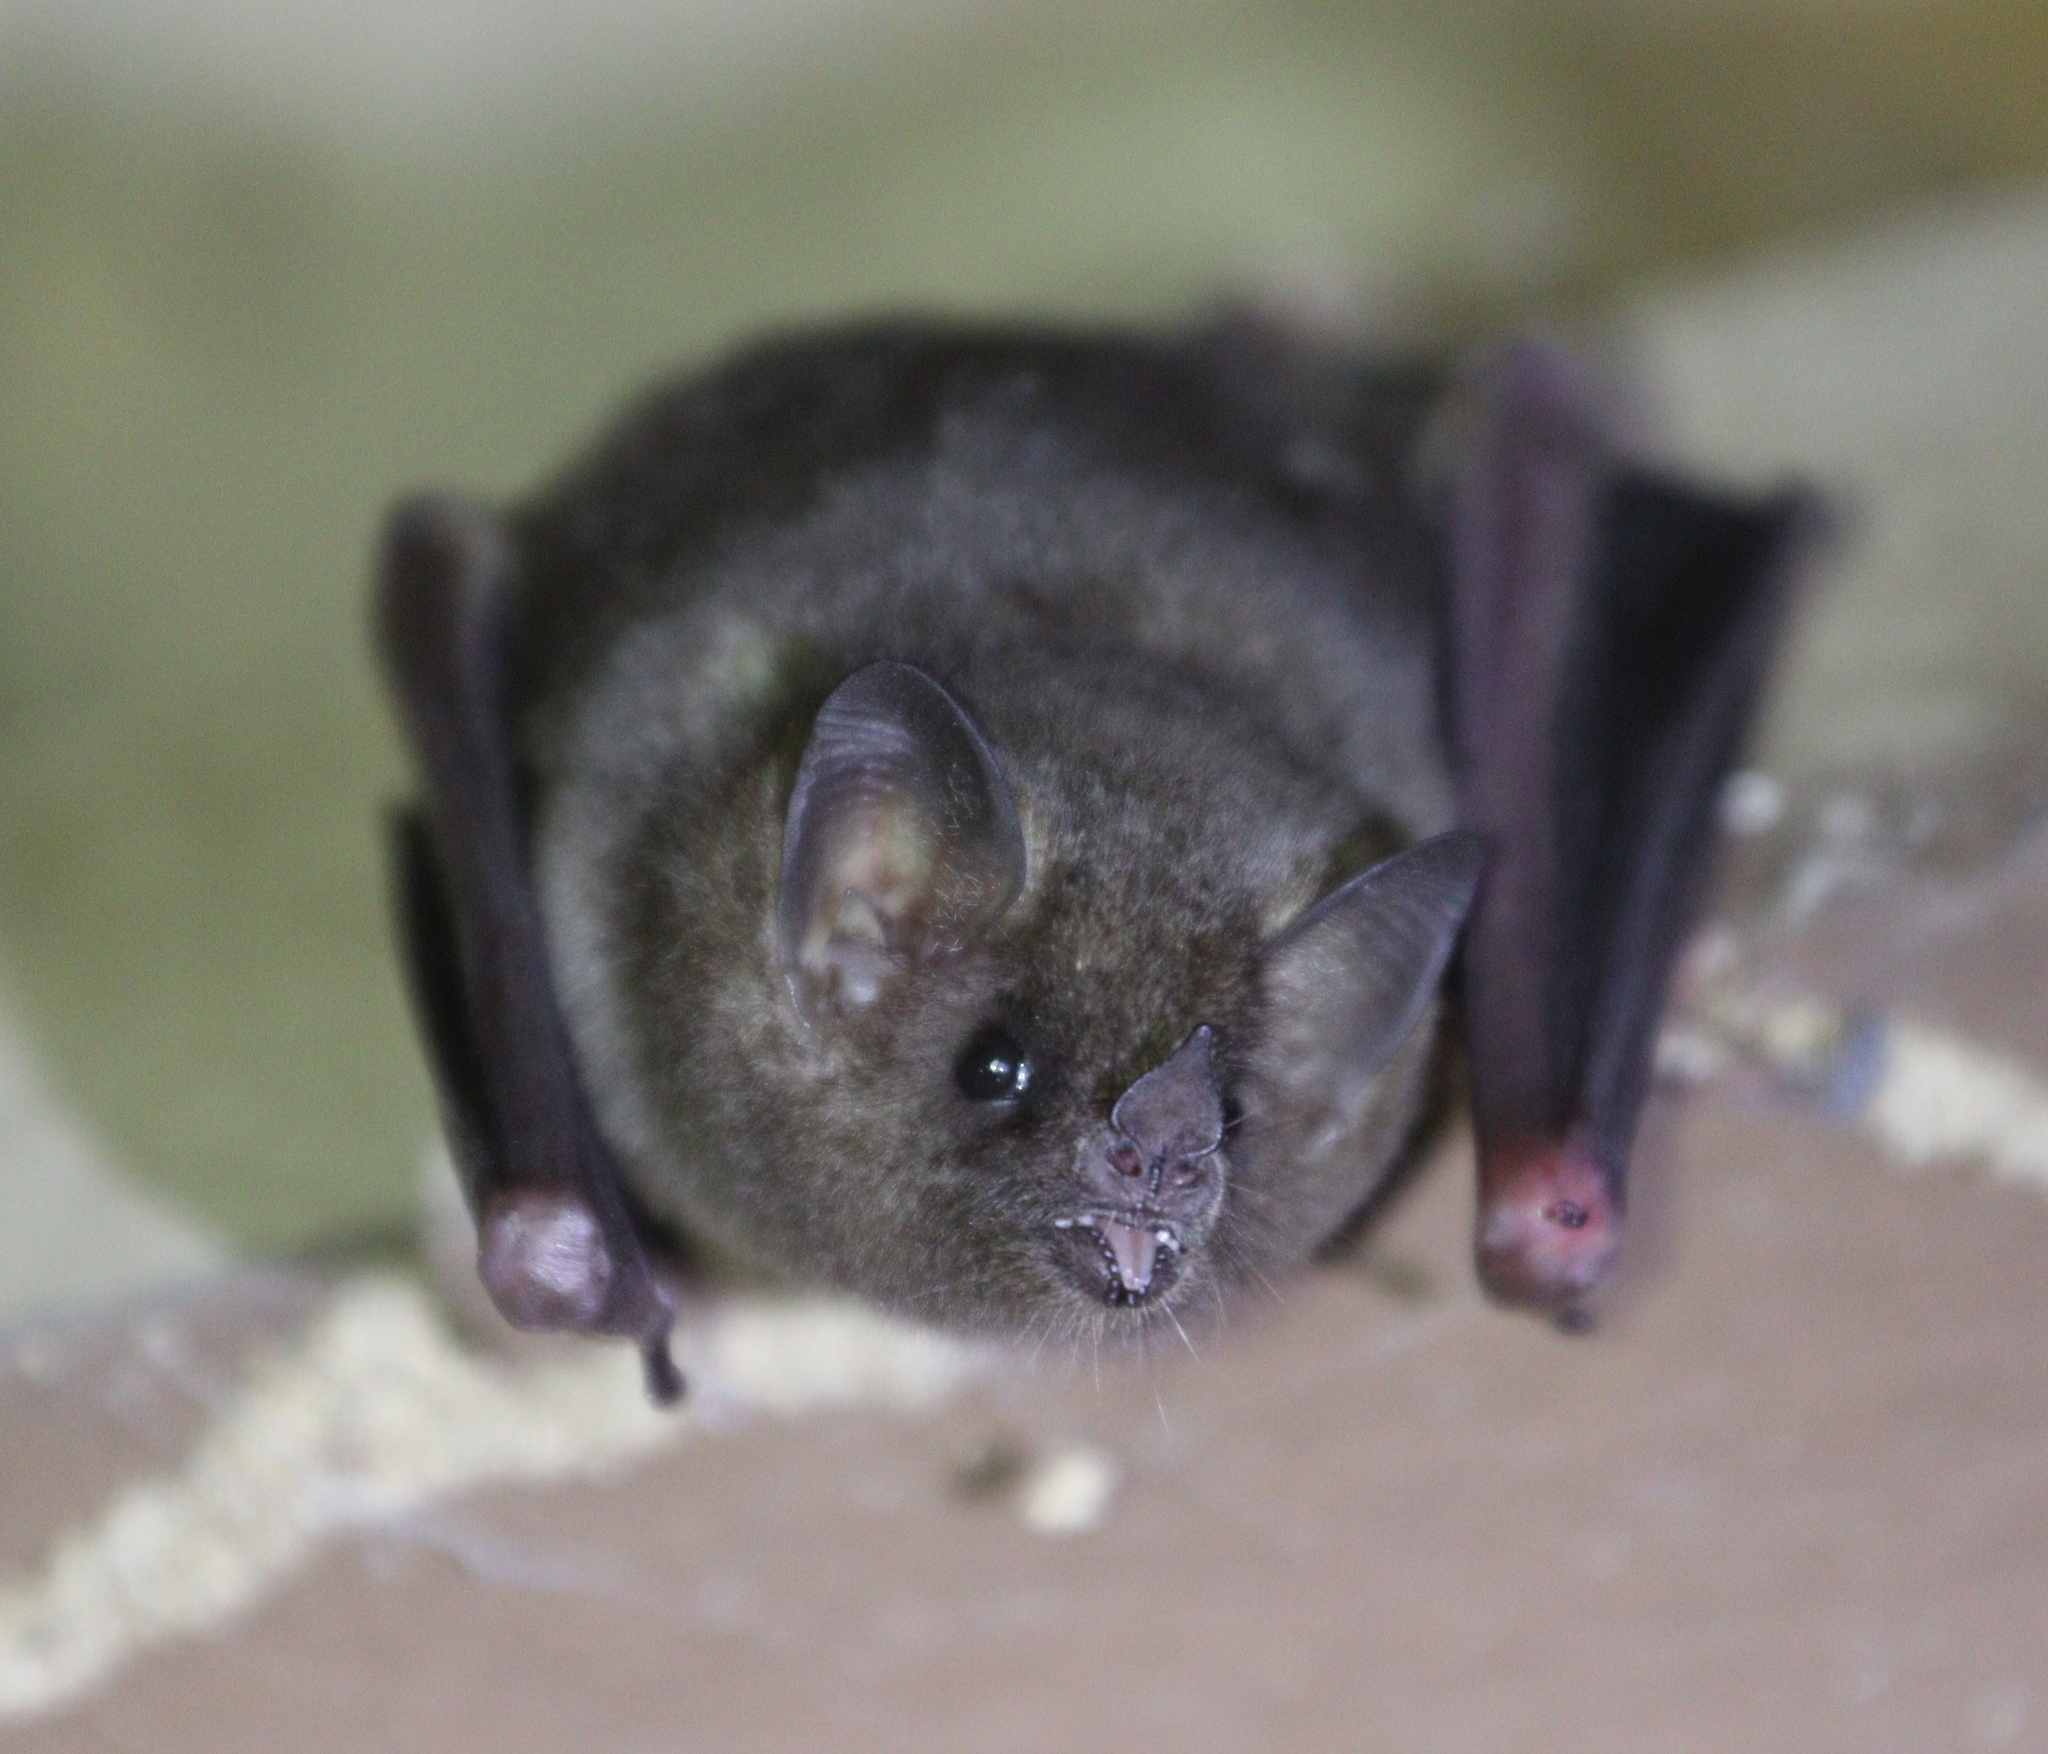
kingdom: Animalia
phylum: Chordata
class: Mammalia
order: Chiroptera
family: Phyllostomidae
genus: Glossophaga
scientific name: Glossophaga soricina
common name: Pallas's long-tongued bat
